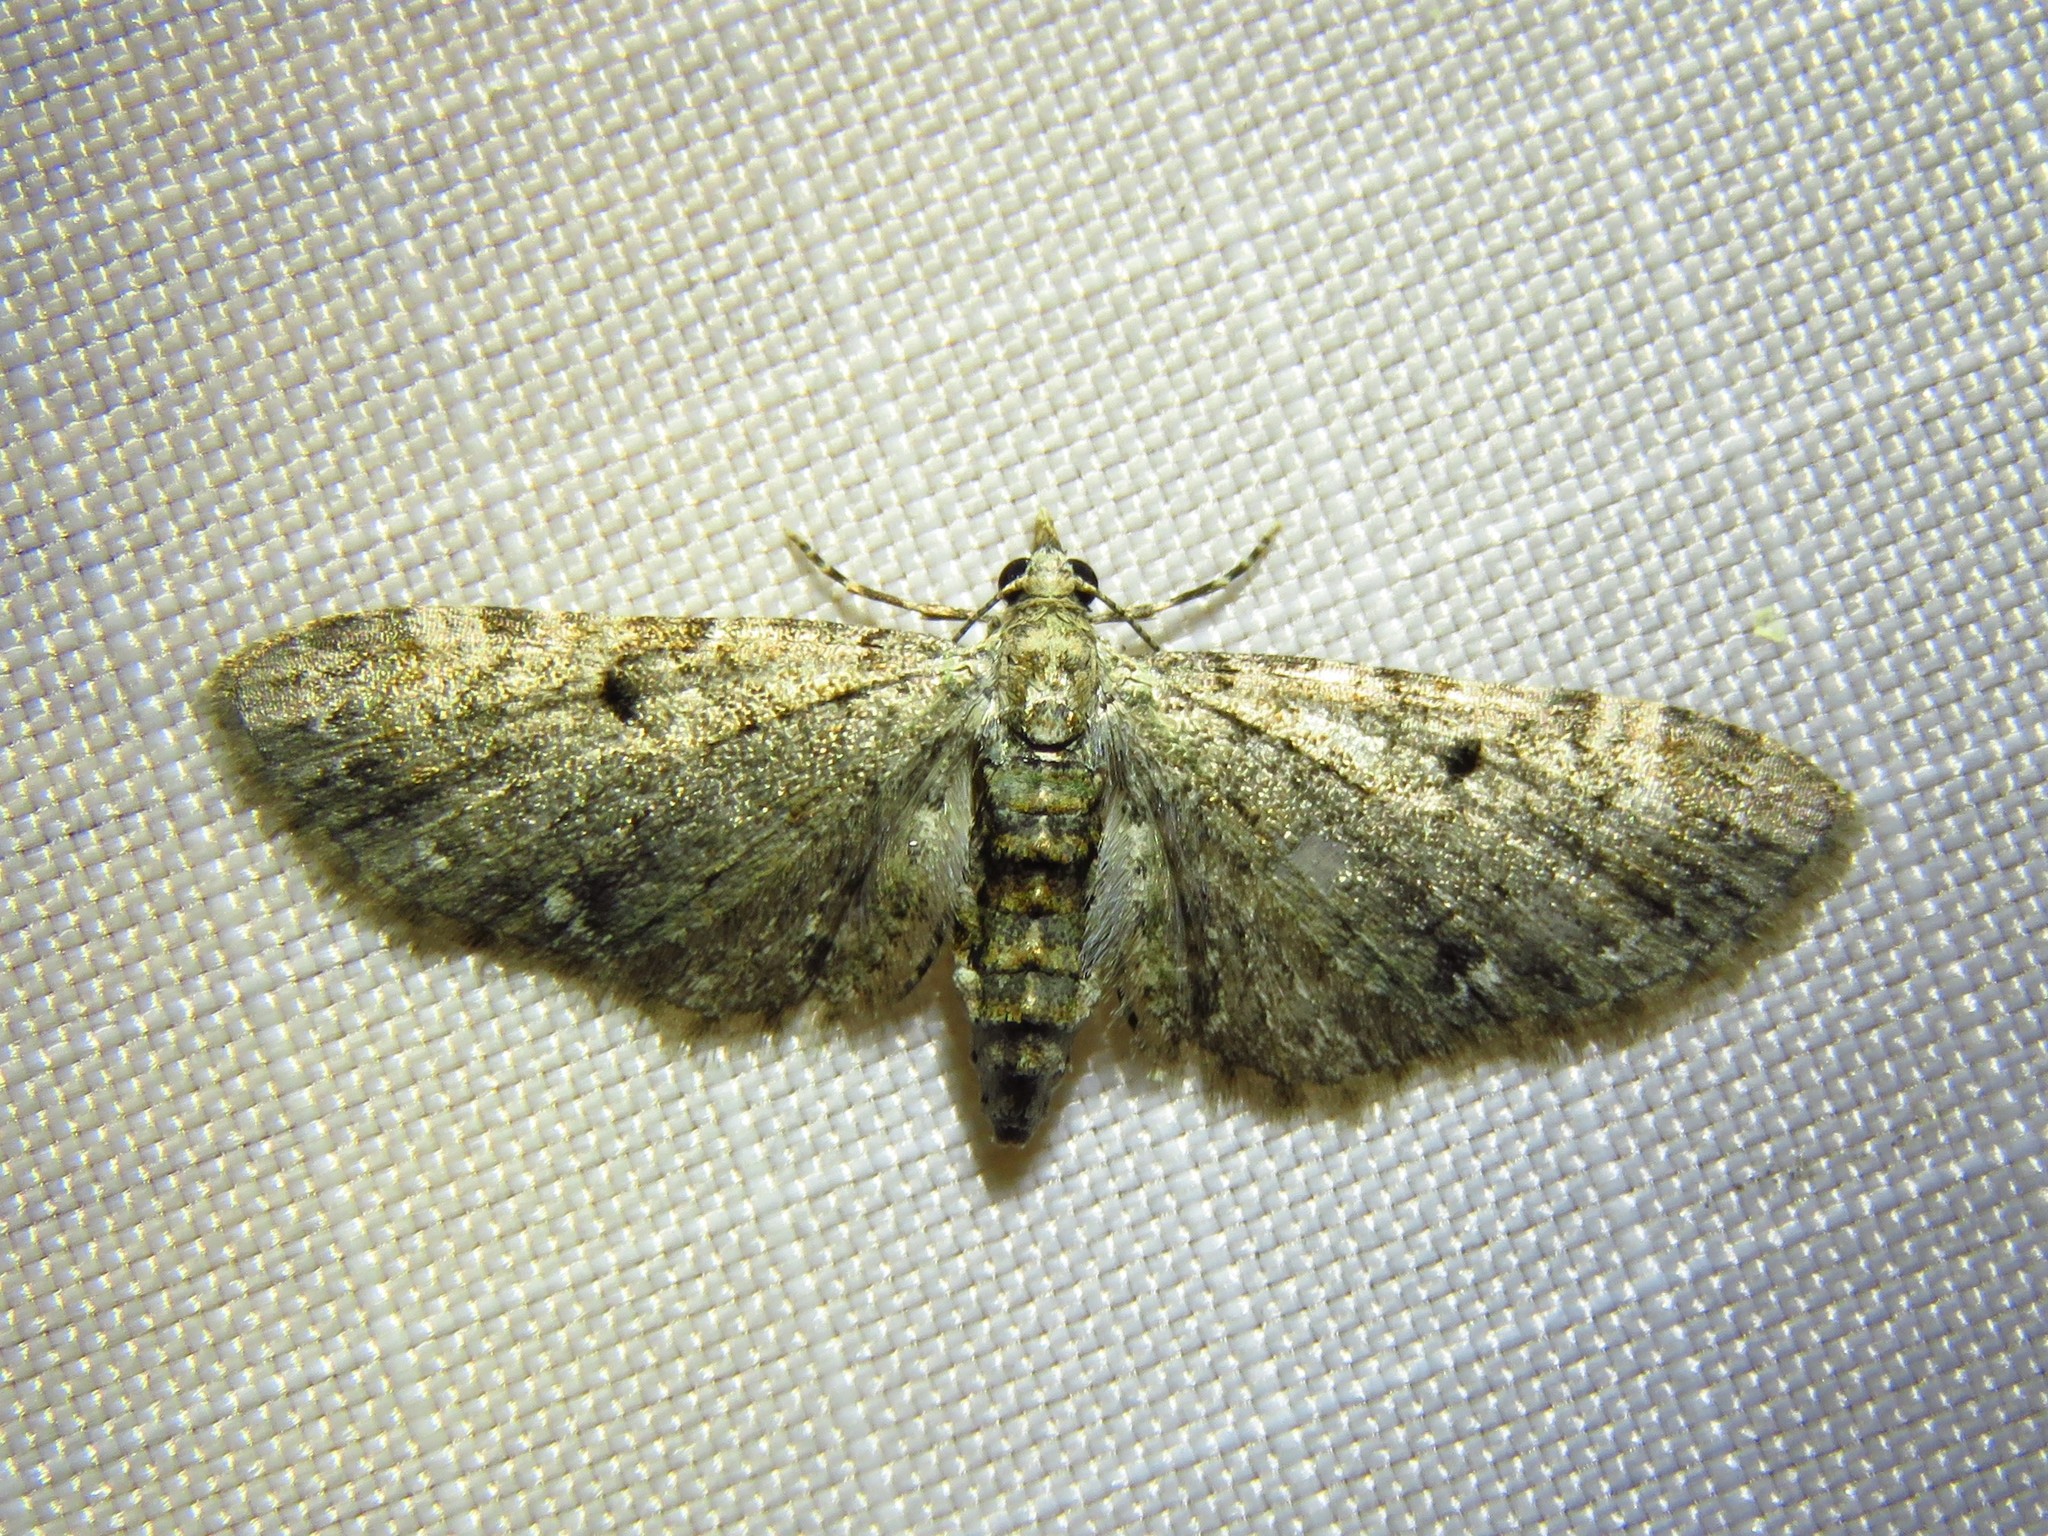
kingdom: Animalia
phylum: Arthropoda
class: Insecta
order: Lepidoptera
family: Geometridae
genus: Eupithecia
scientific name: Eupithecia miserulata
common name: Common eupithecia
